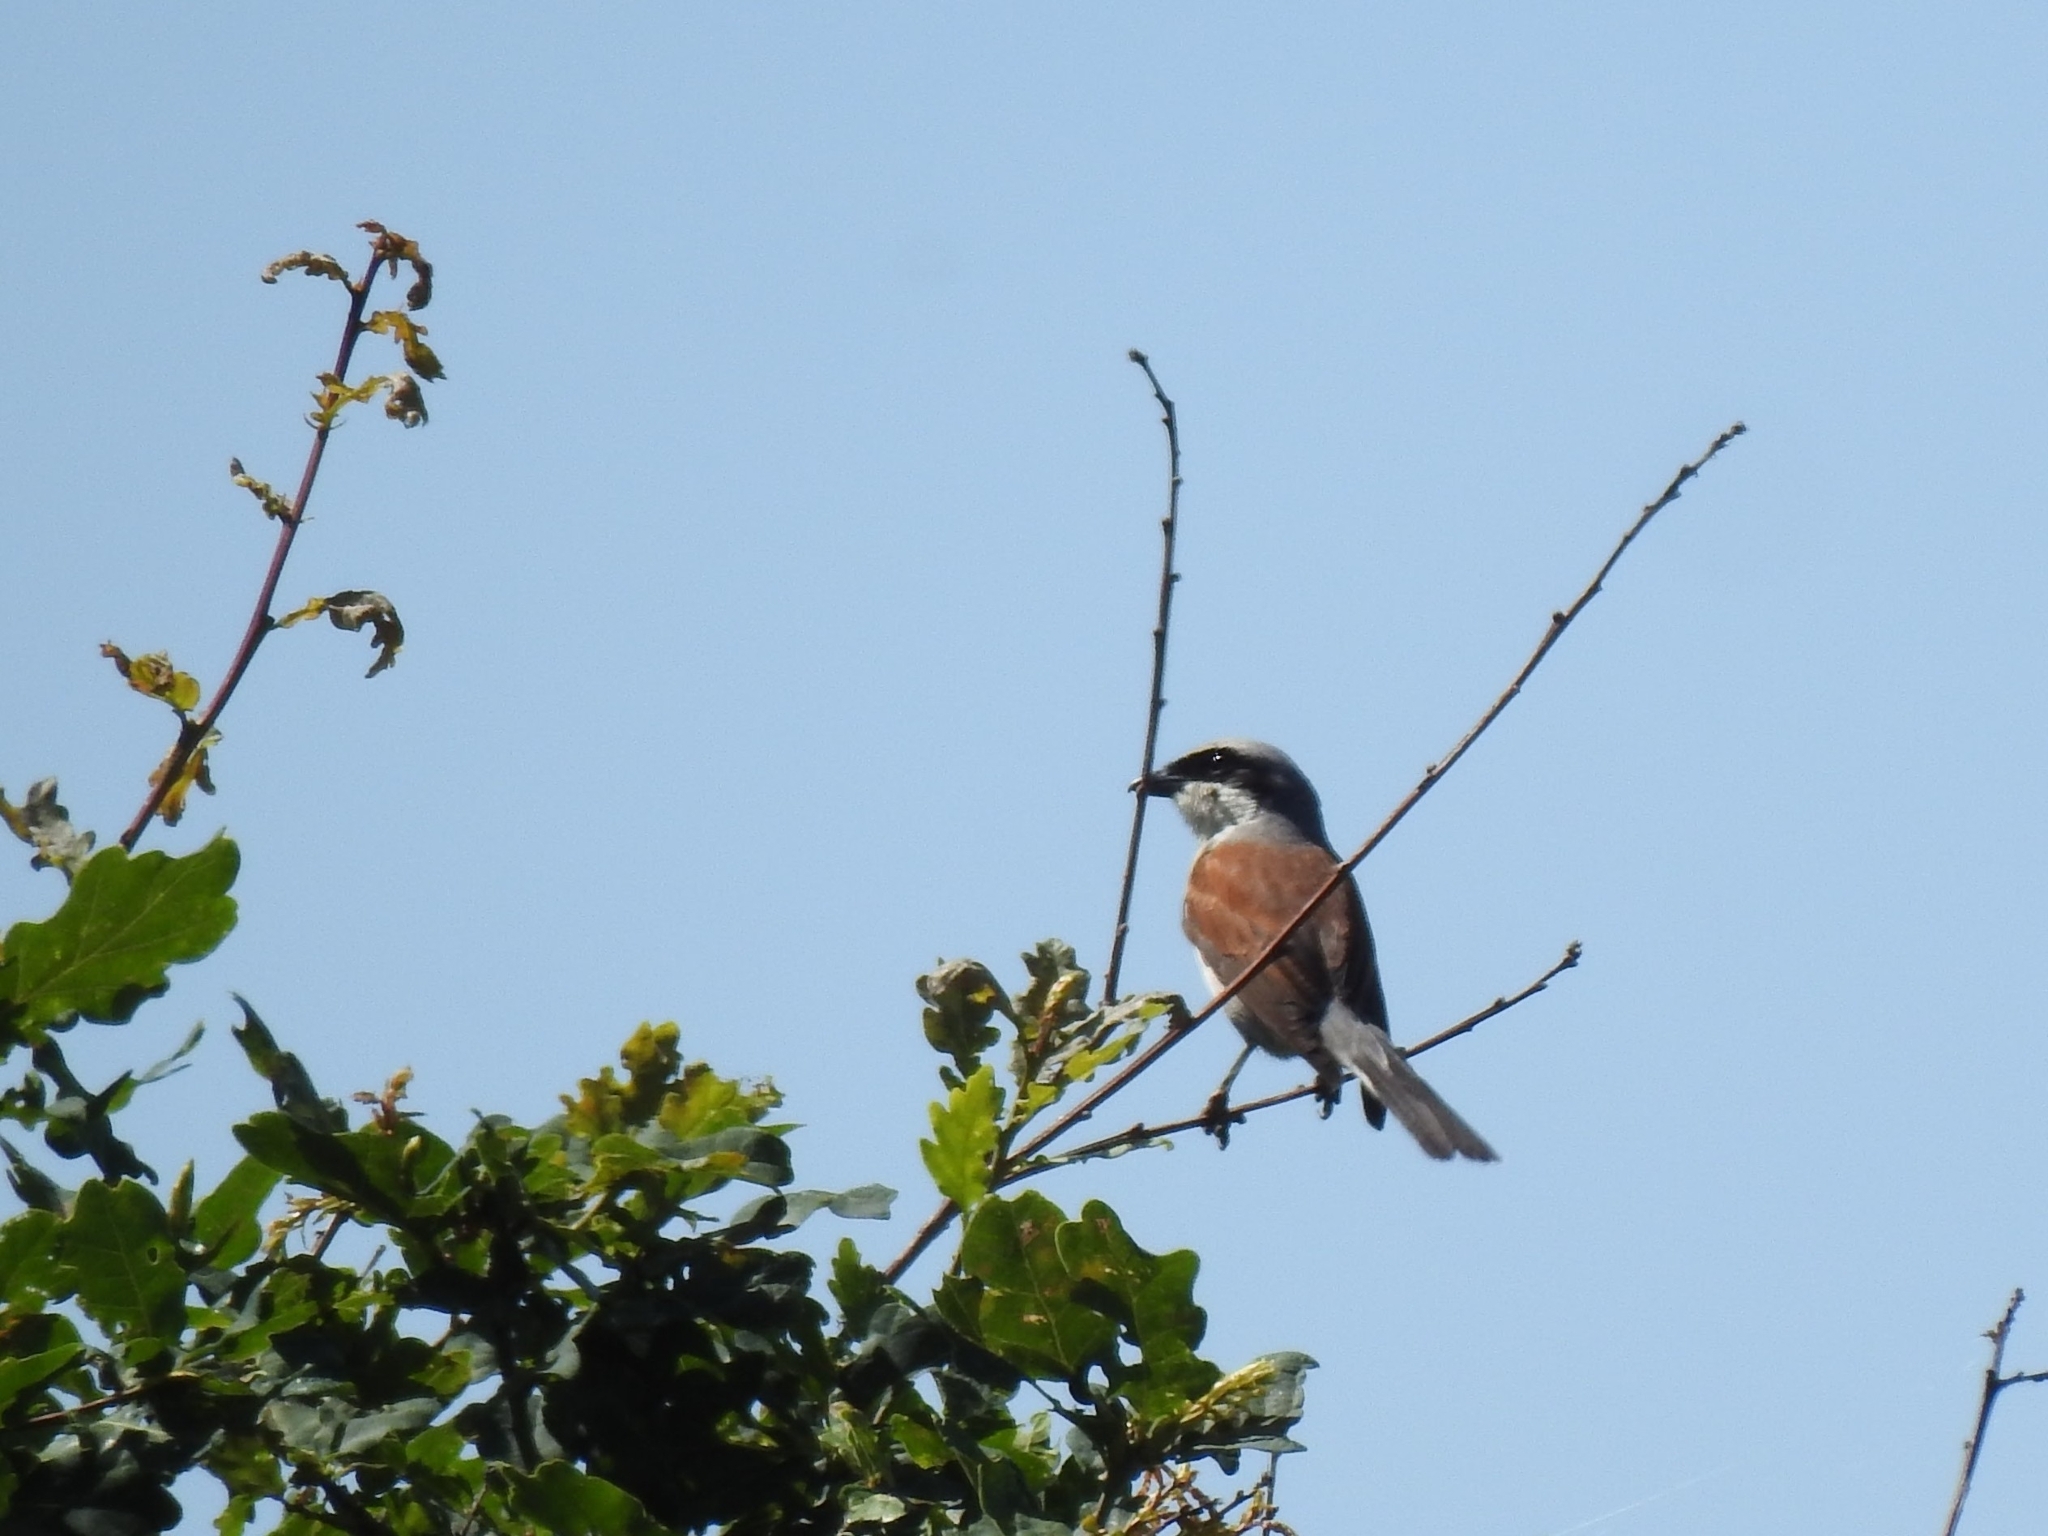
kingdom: Animalia
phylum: Chordata
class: Aves
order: Passeriformes
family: Laniidae
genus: Lanius
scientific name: Lanius collurio
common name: Red-backed shrike
